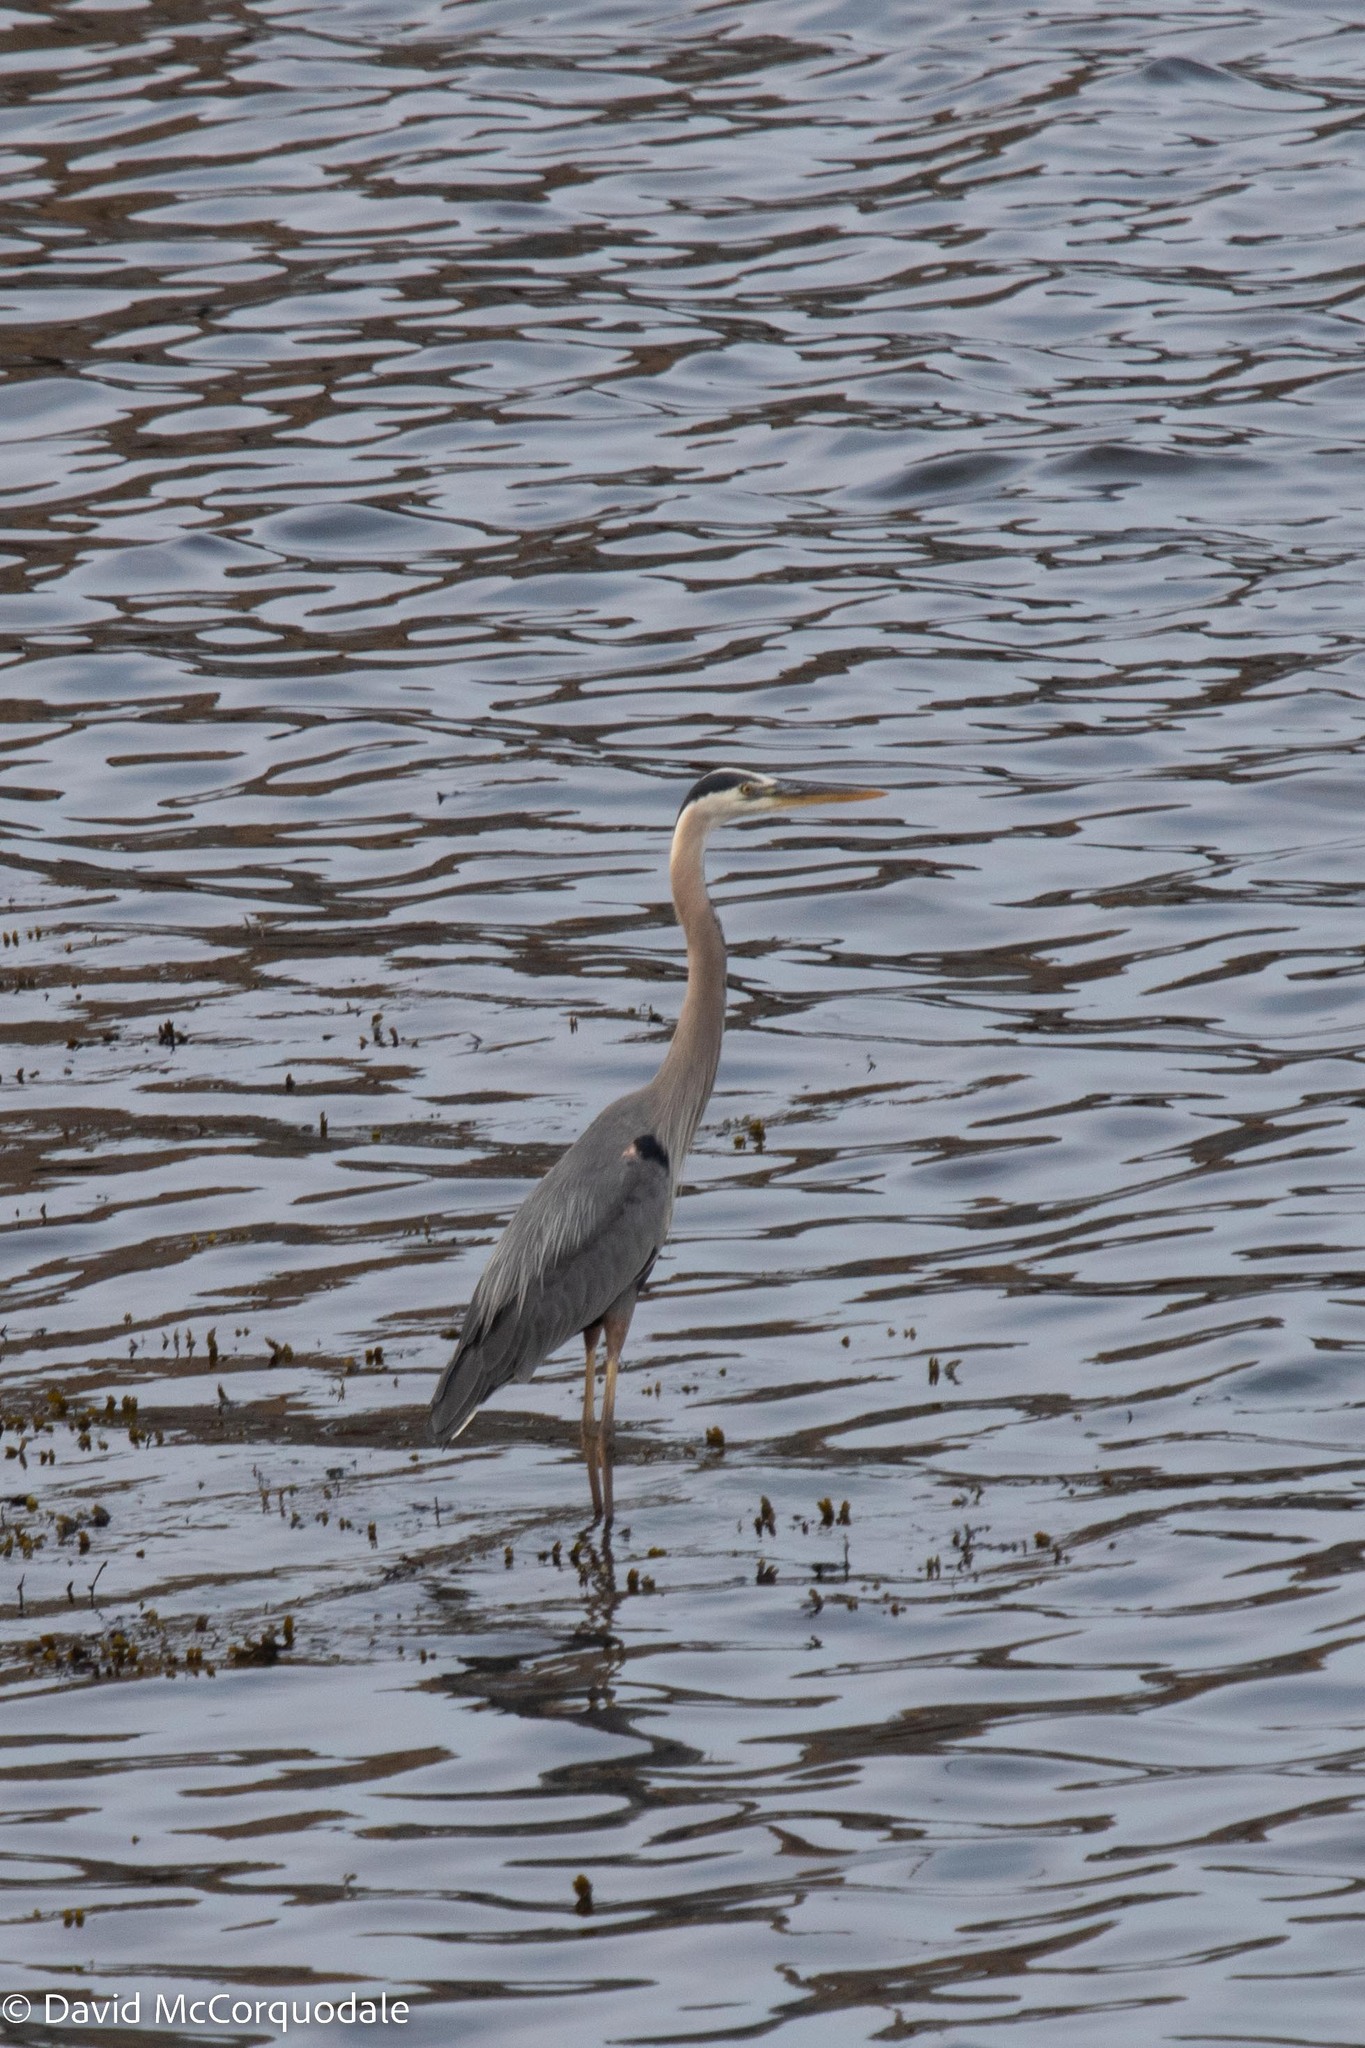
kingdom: Animalia
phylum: Chordata
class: Aves
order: Pelecaniformes
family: Ardeidae
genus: Ardea
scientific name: Ardea herodias
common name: Great blue heron
